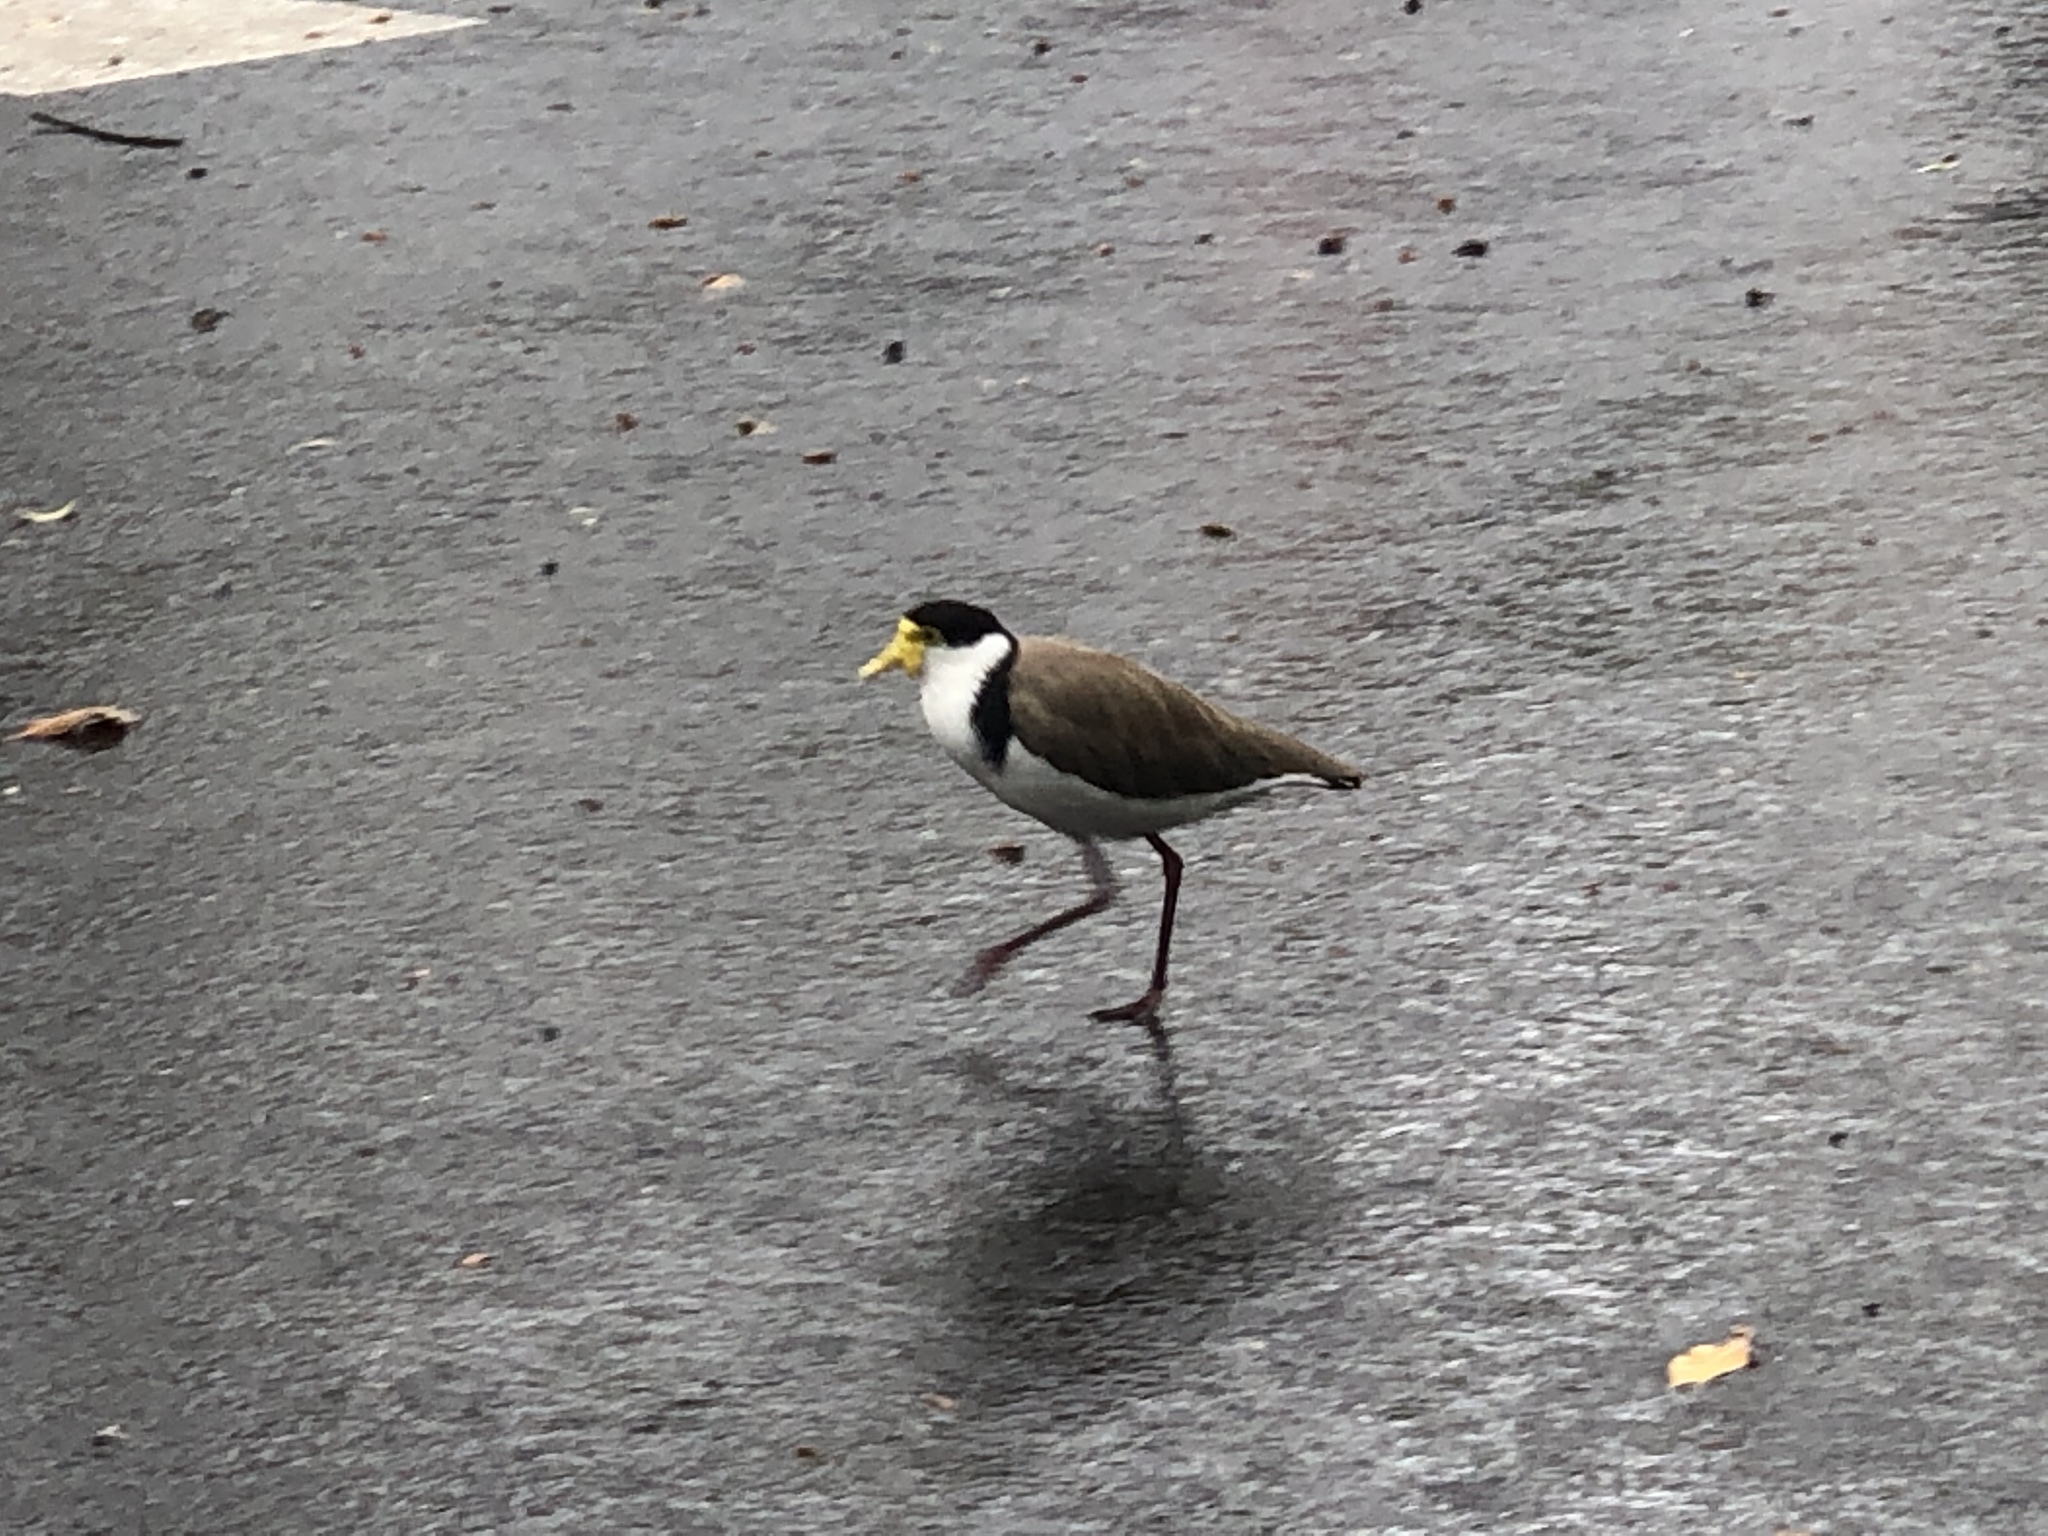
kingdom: Animalia
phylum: Chordata
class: Aves
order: Charadriiformes
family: Charadriidae
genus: Vanellus
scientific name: Vanellus miles
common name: Masked lapwing
